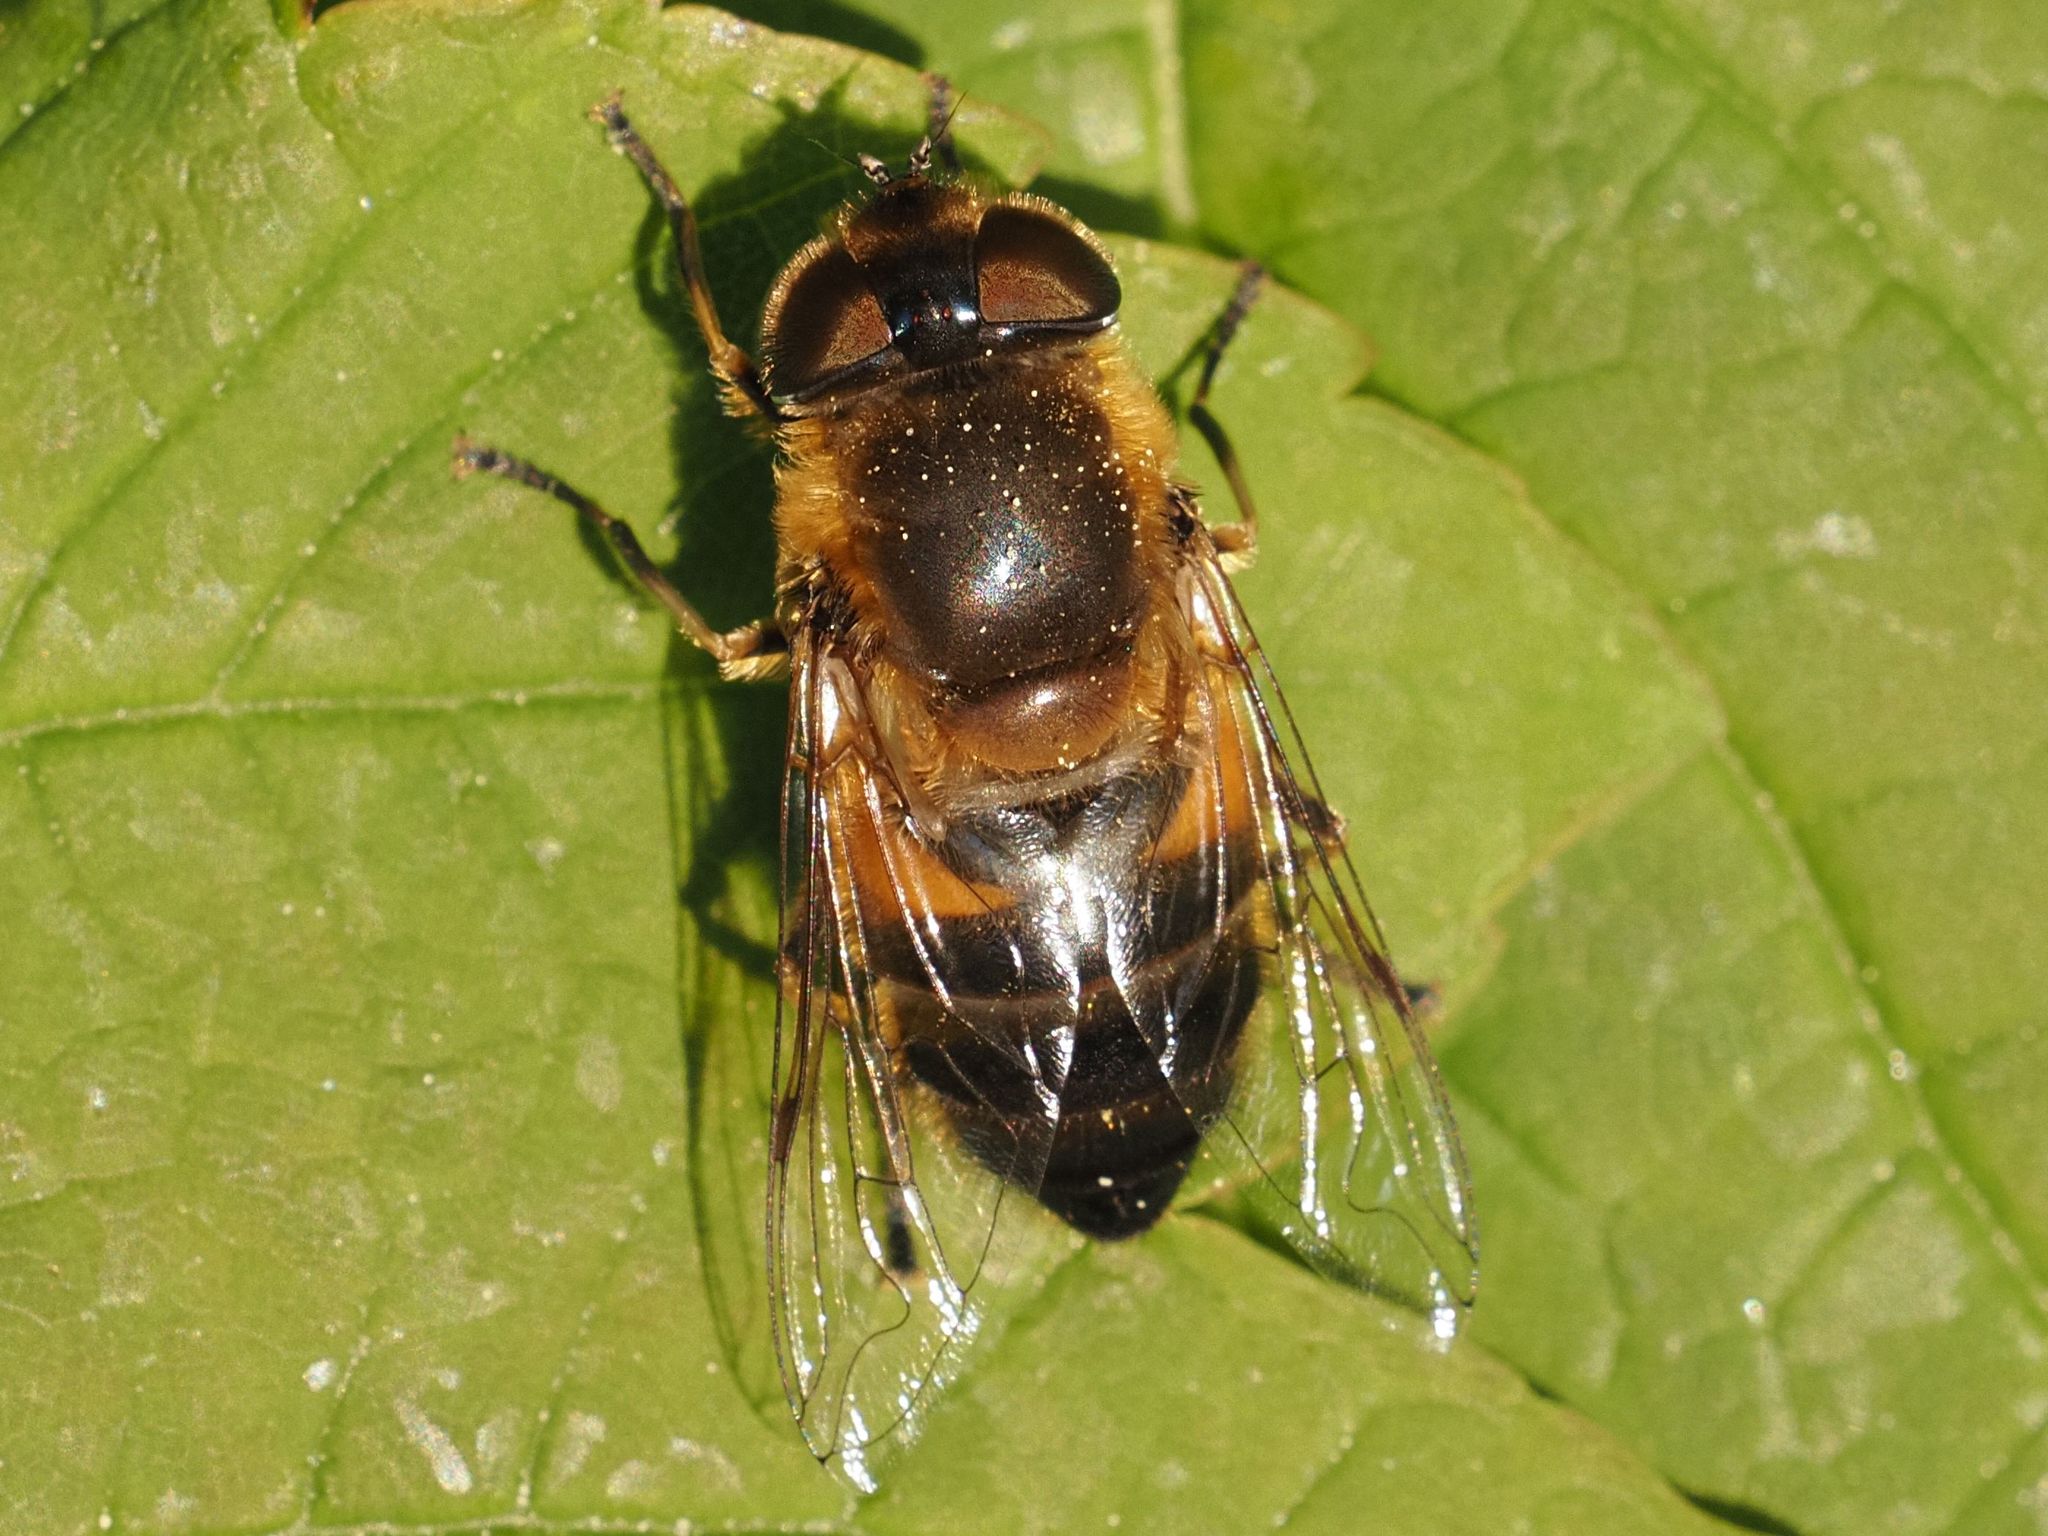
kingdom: Animalia
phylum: Arthropoda
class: Insecta
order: Diptera
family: Syrphidae
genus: Eristalis
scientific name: Eristalis pertinax
